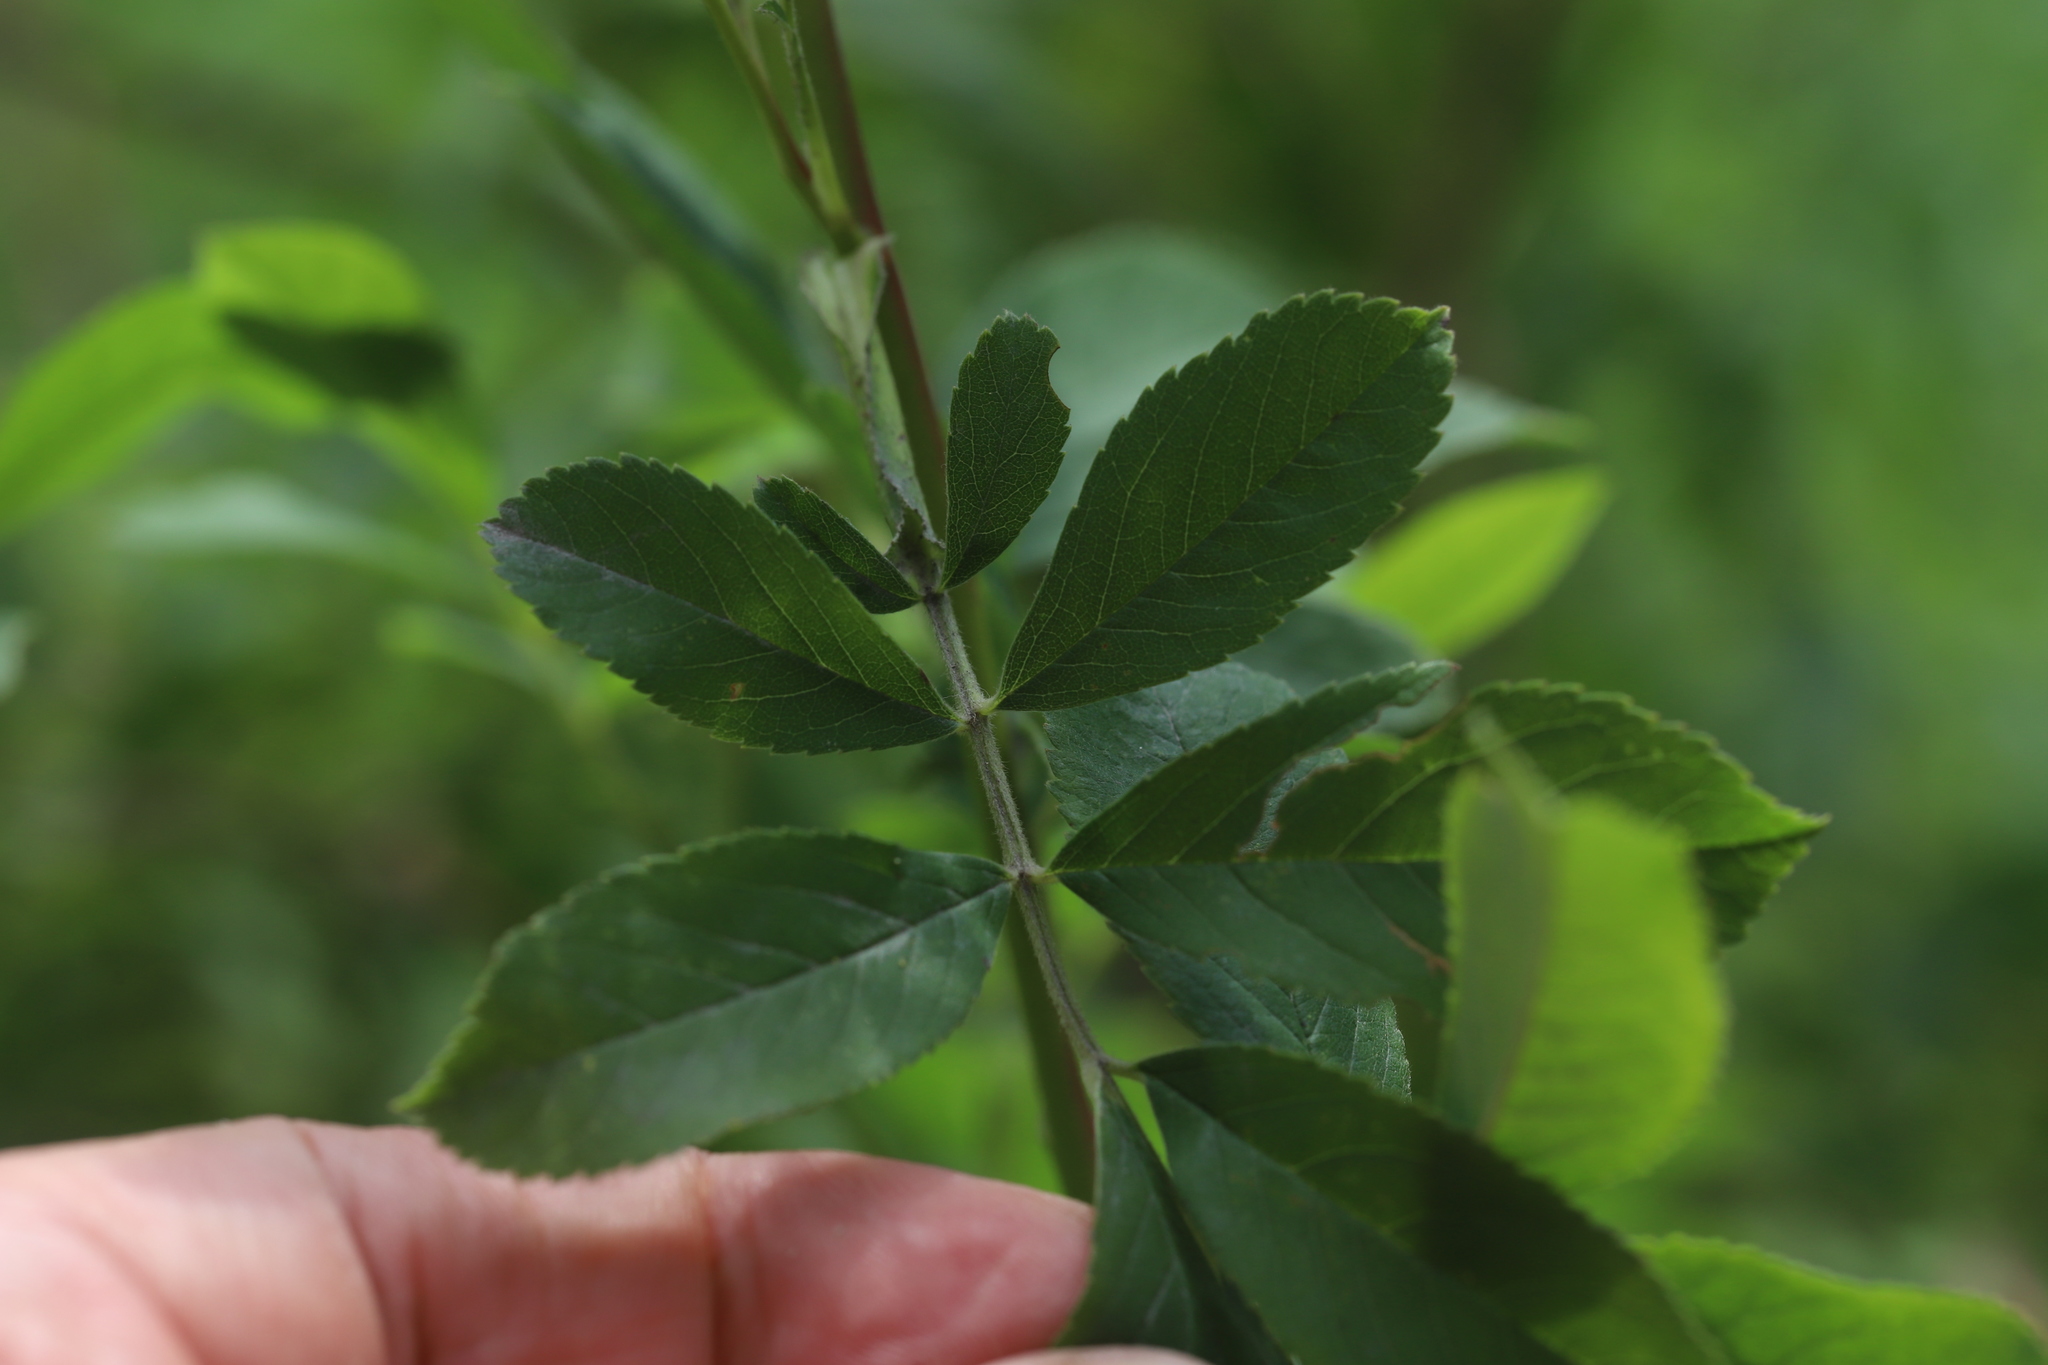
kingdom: Plantae
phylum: Tracheophyta
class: Magnoliopsida
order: Rosales
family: Rosaceae
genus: Rosa
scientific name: Rosa palustris
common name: Swamp rose
